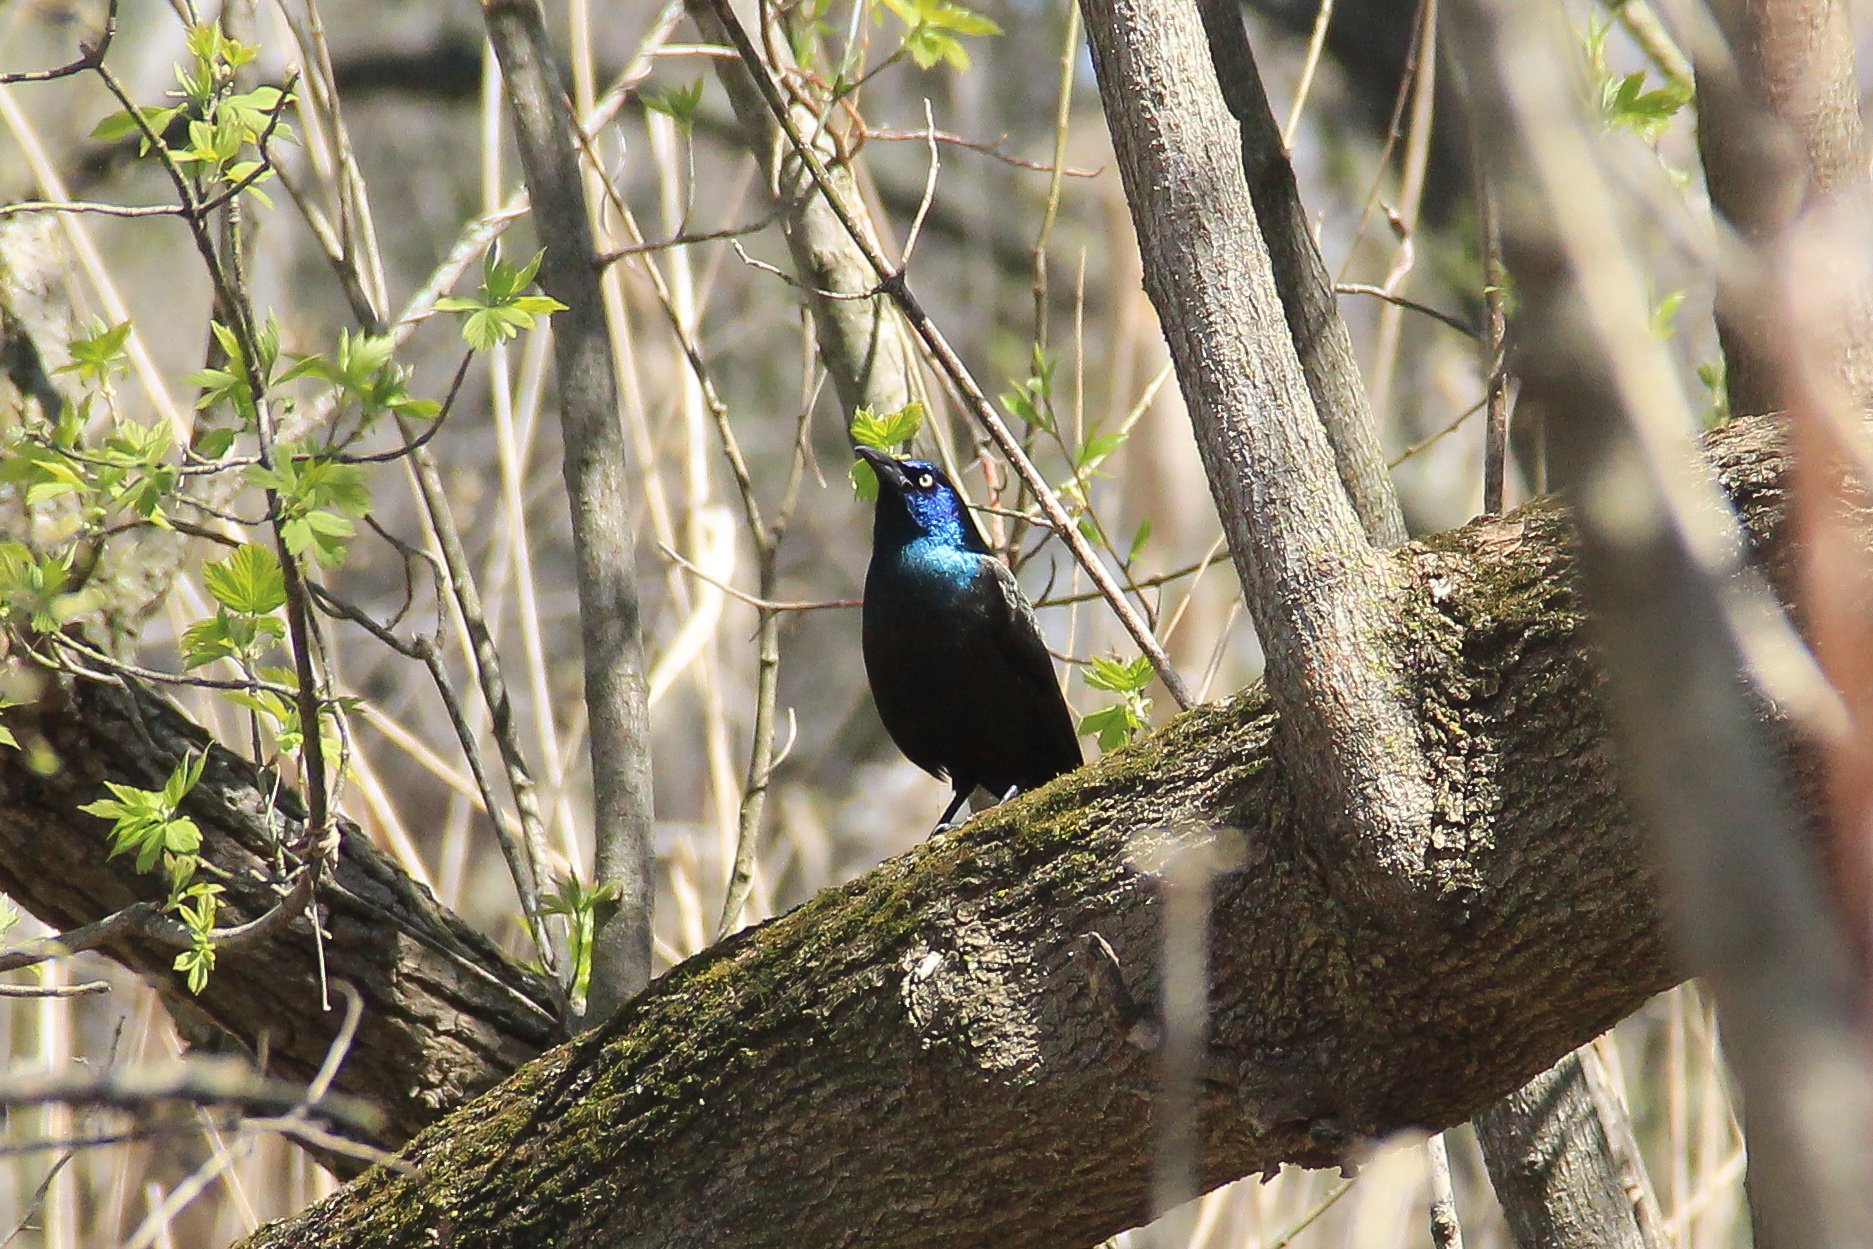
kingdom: Animalia
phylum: Chordata
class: Aves
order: Passeriformes
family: Icteridae
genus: Quiscalus
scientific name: Quiscalus quiscula
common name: Common grackle
